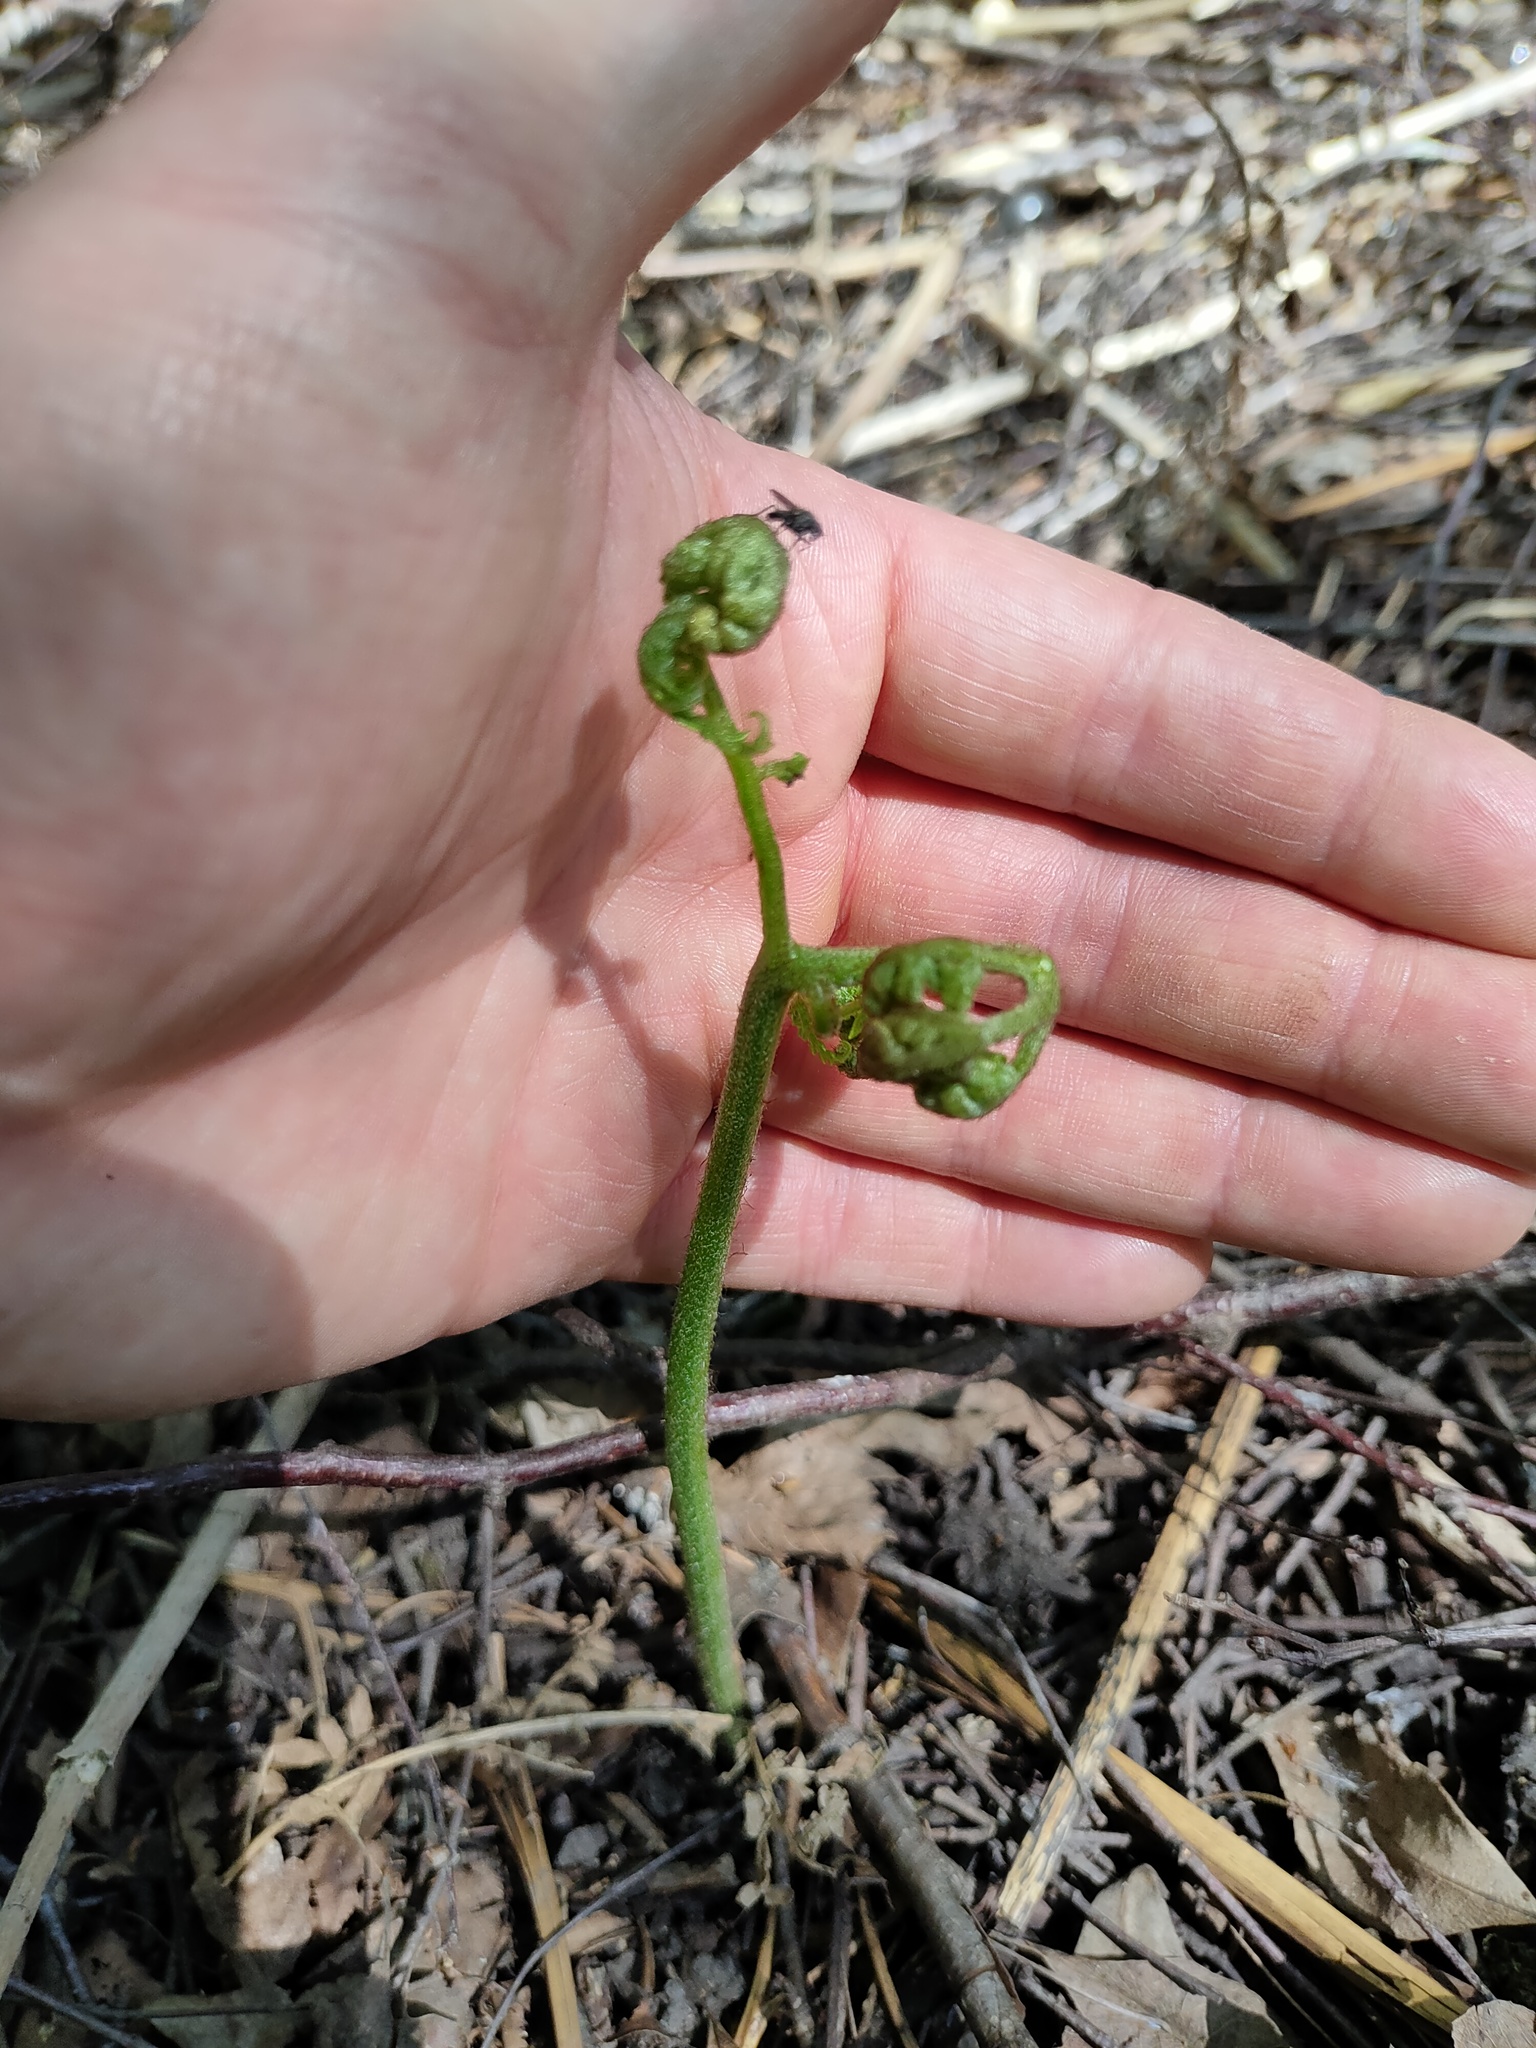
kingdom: Plantae
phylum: Tracheophyta
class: Polypodiopsida
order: Polypodiales
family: Dennstaedtiaceae
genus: Pteridium
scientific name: Pteridium aquilinum
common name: Bracken
